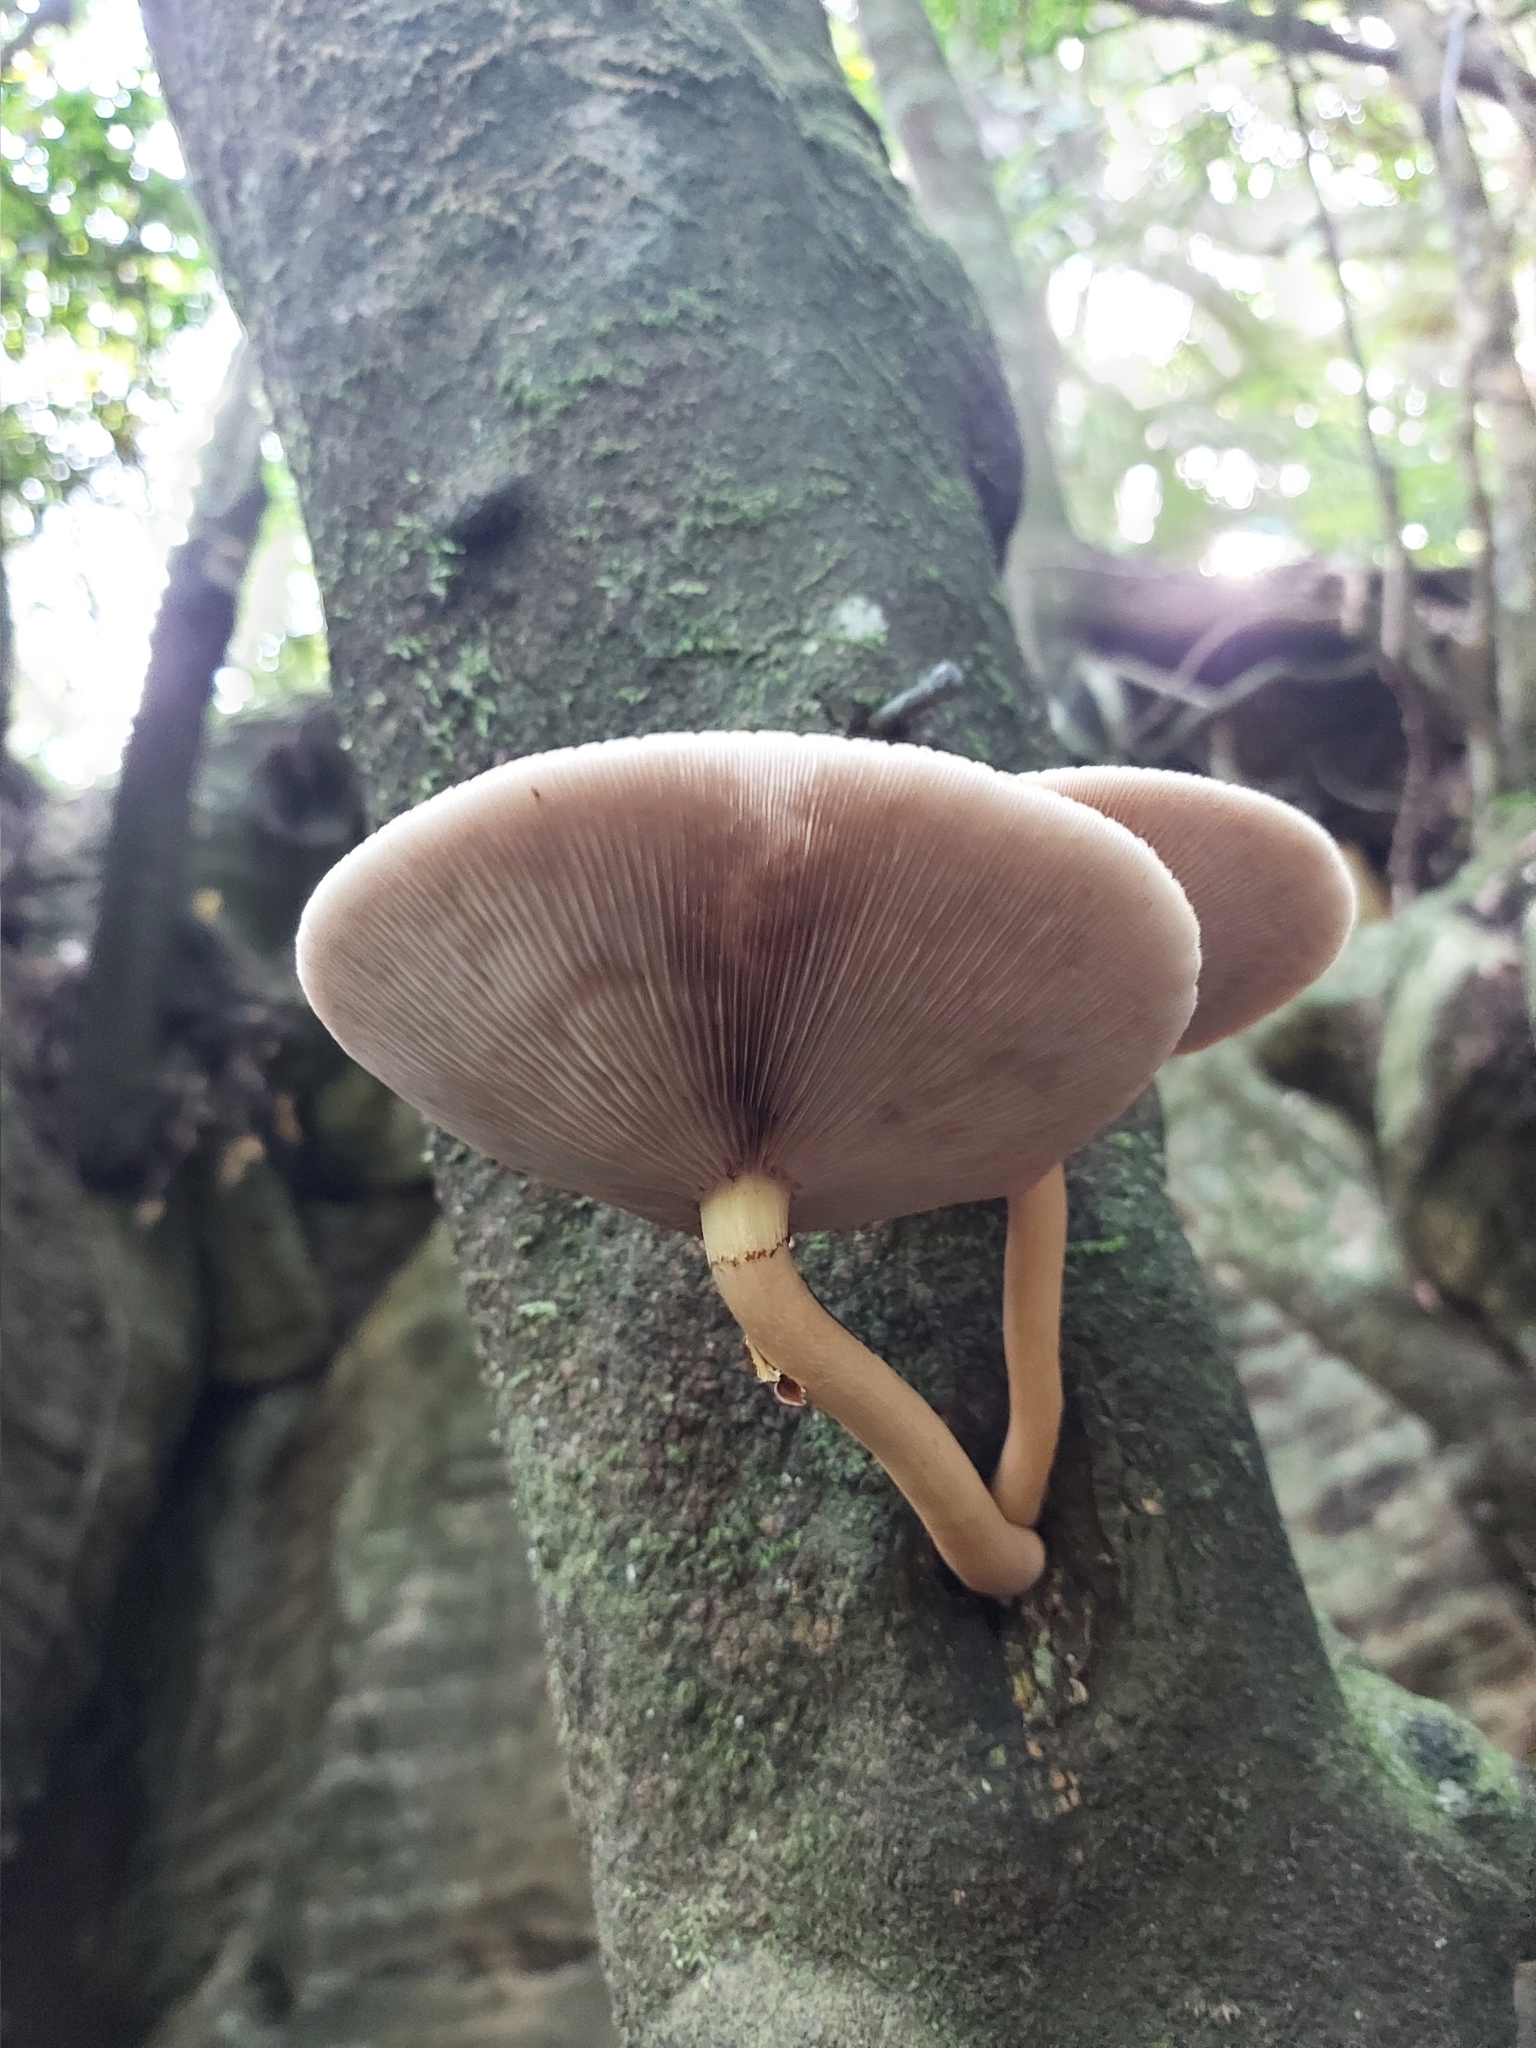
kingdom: Fungi
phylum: Basidiomycota
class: Agaricomycetes
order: Agaricales
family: Tubariaceae
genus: Cyclocybe
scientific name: Cyclocybe parasitica
